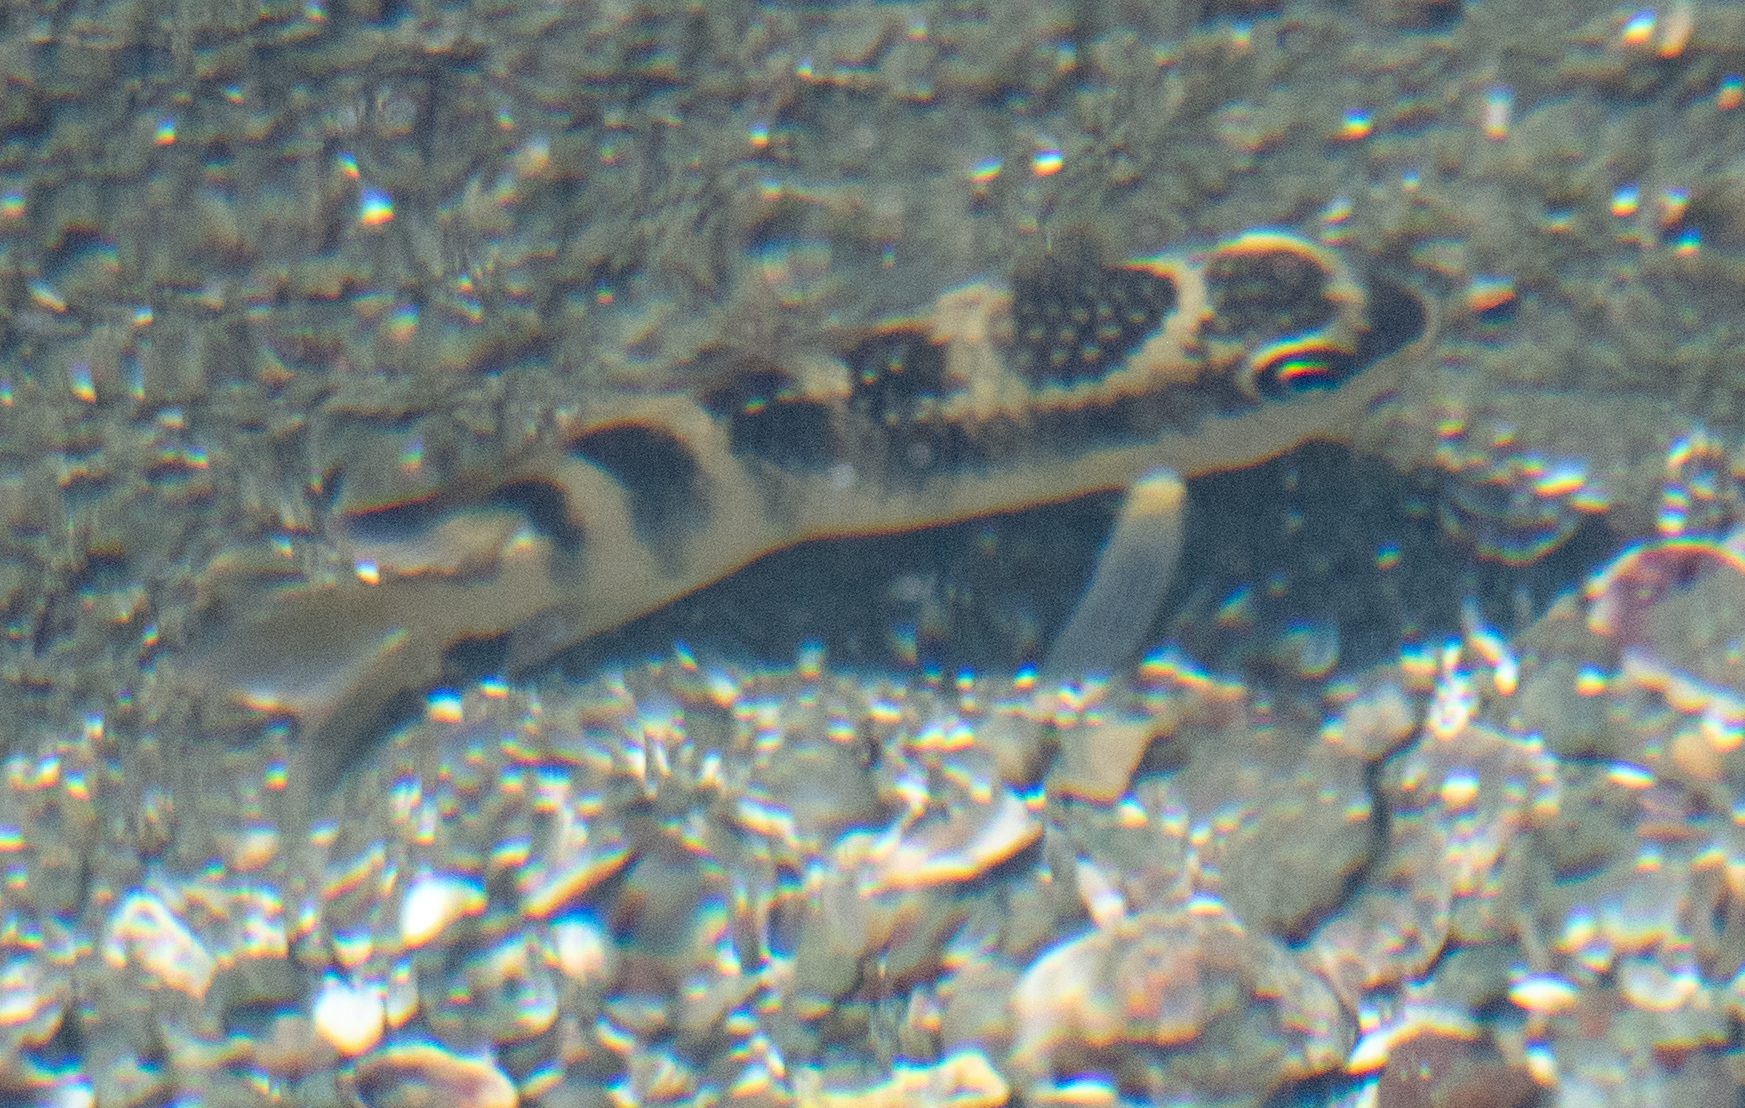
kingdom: Animalia
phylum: Chordata
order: Perciformes
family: Pomacentridae
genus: Abudefduf
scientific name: Abudefduf concolor
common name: Dusky seargent
